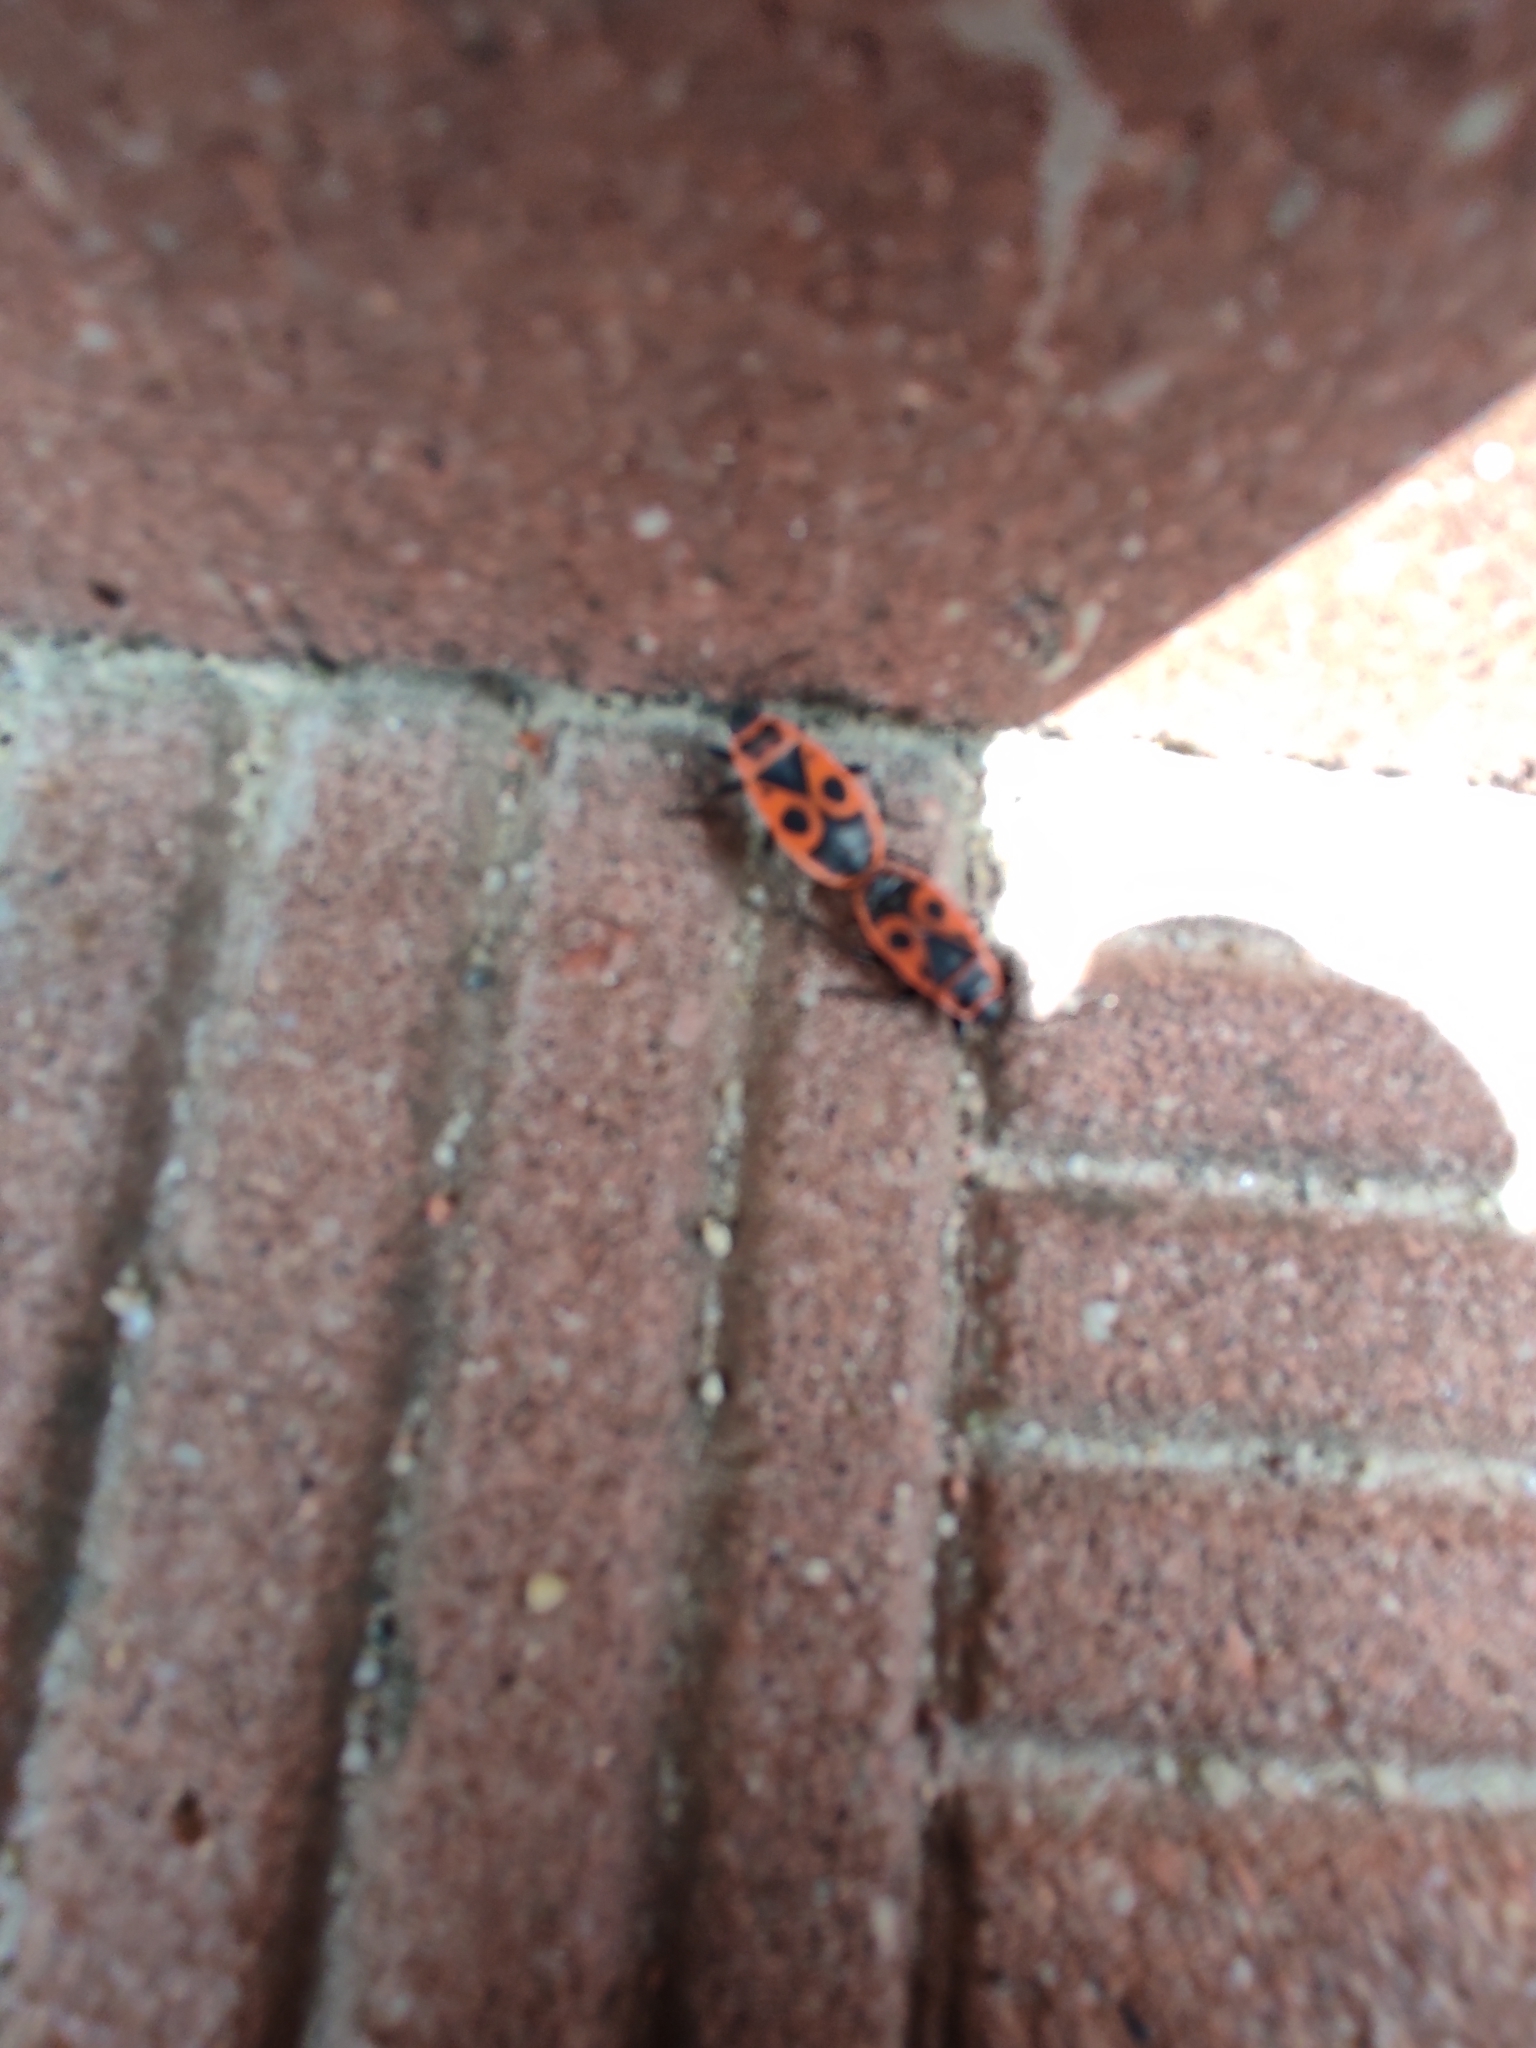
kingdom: Animalia
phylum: Arthropoda
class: Insecta
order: Hemiptera
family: Pyrrhocoridae
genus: Pyrrhocoris
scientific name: Pyrrhocoris apterus
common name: Firebug
